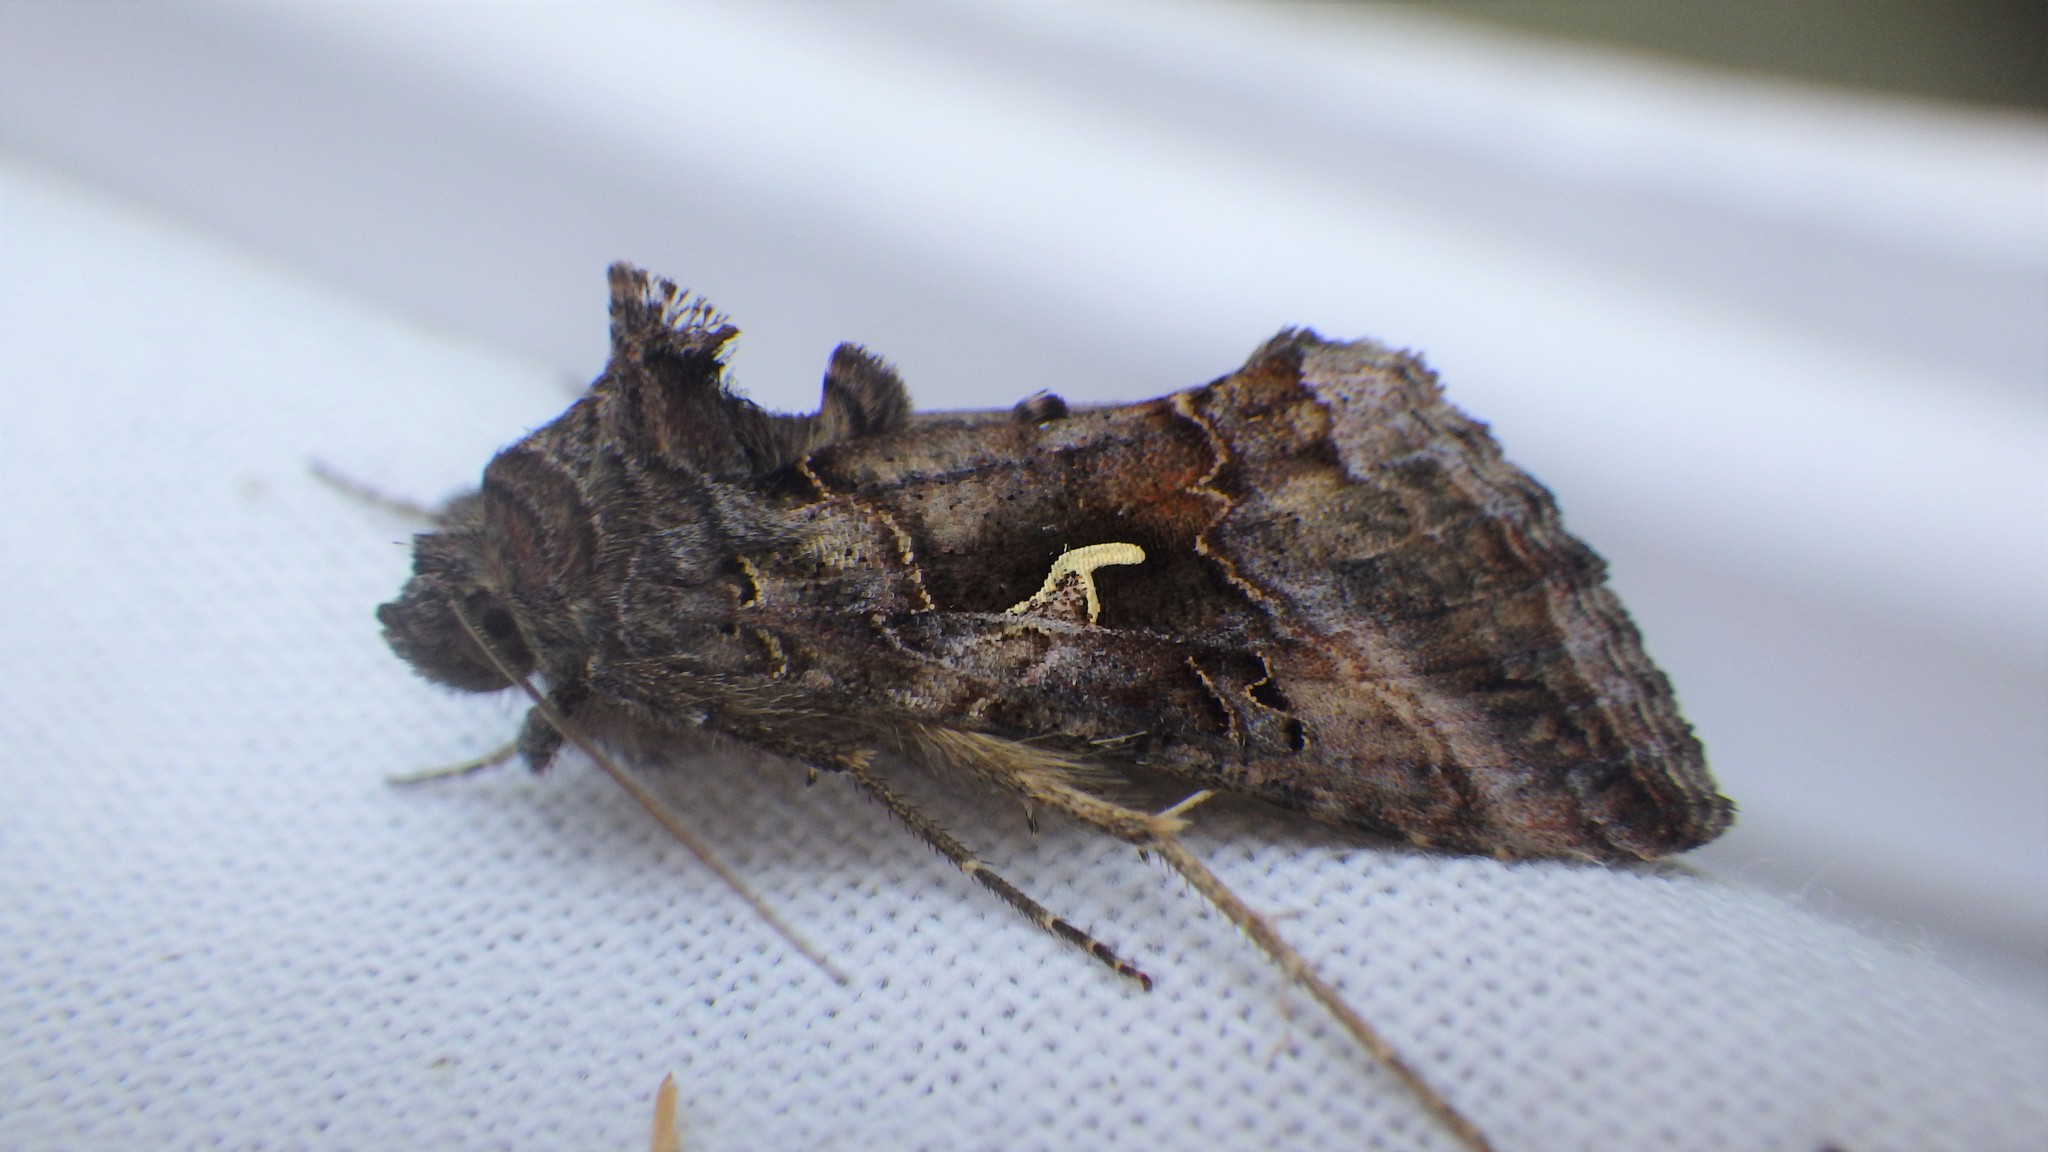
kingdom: Animalia
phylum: Arthropoda
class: Insecta
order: Lepidoptera
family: Noctuidae
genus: Autographa
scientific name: Autographa gamma
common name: Silver y
